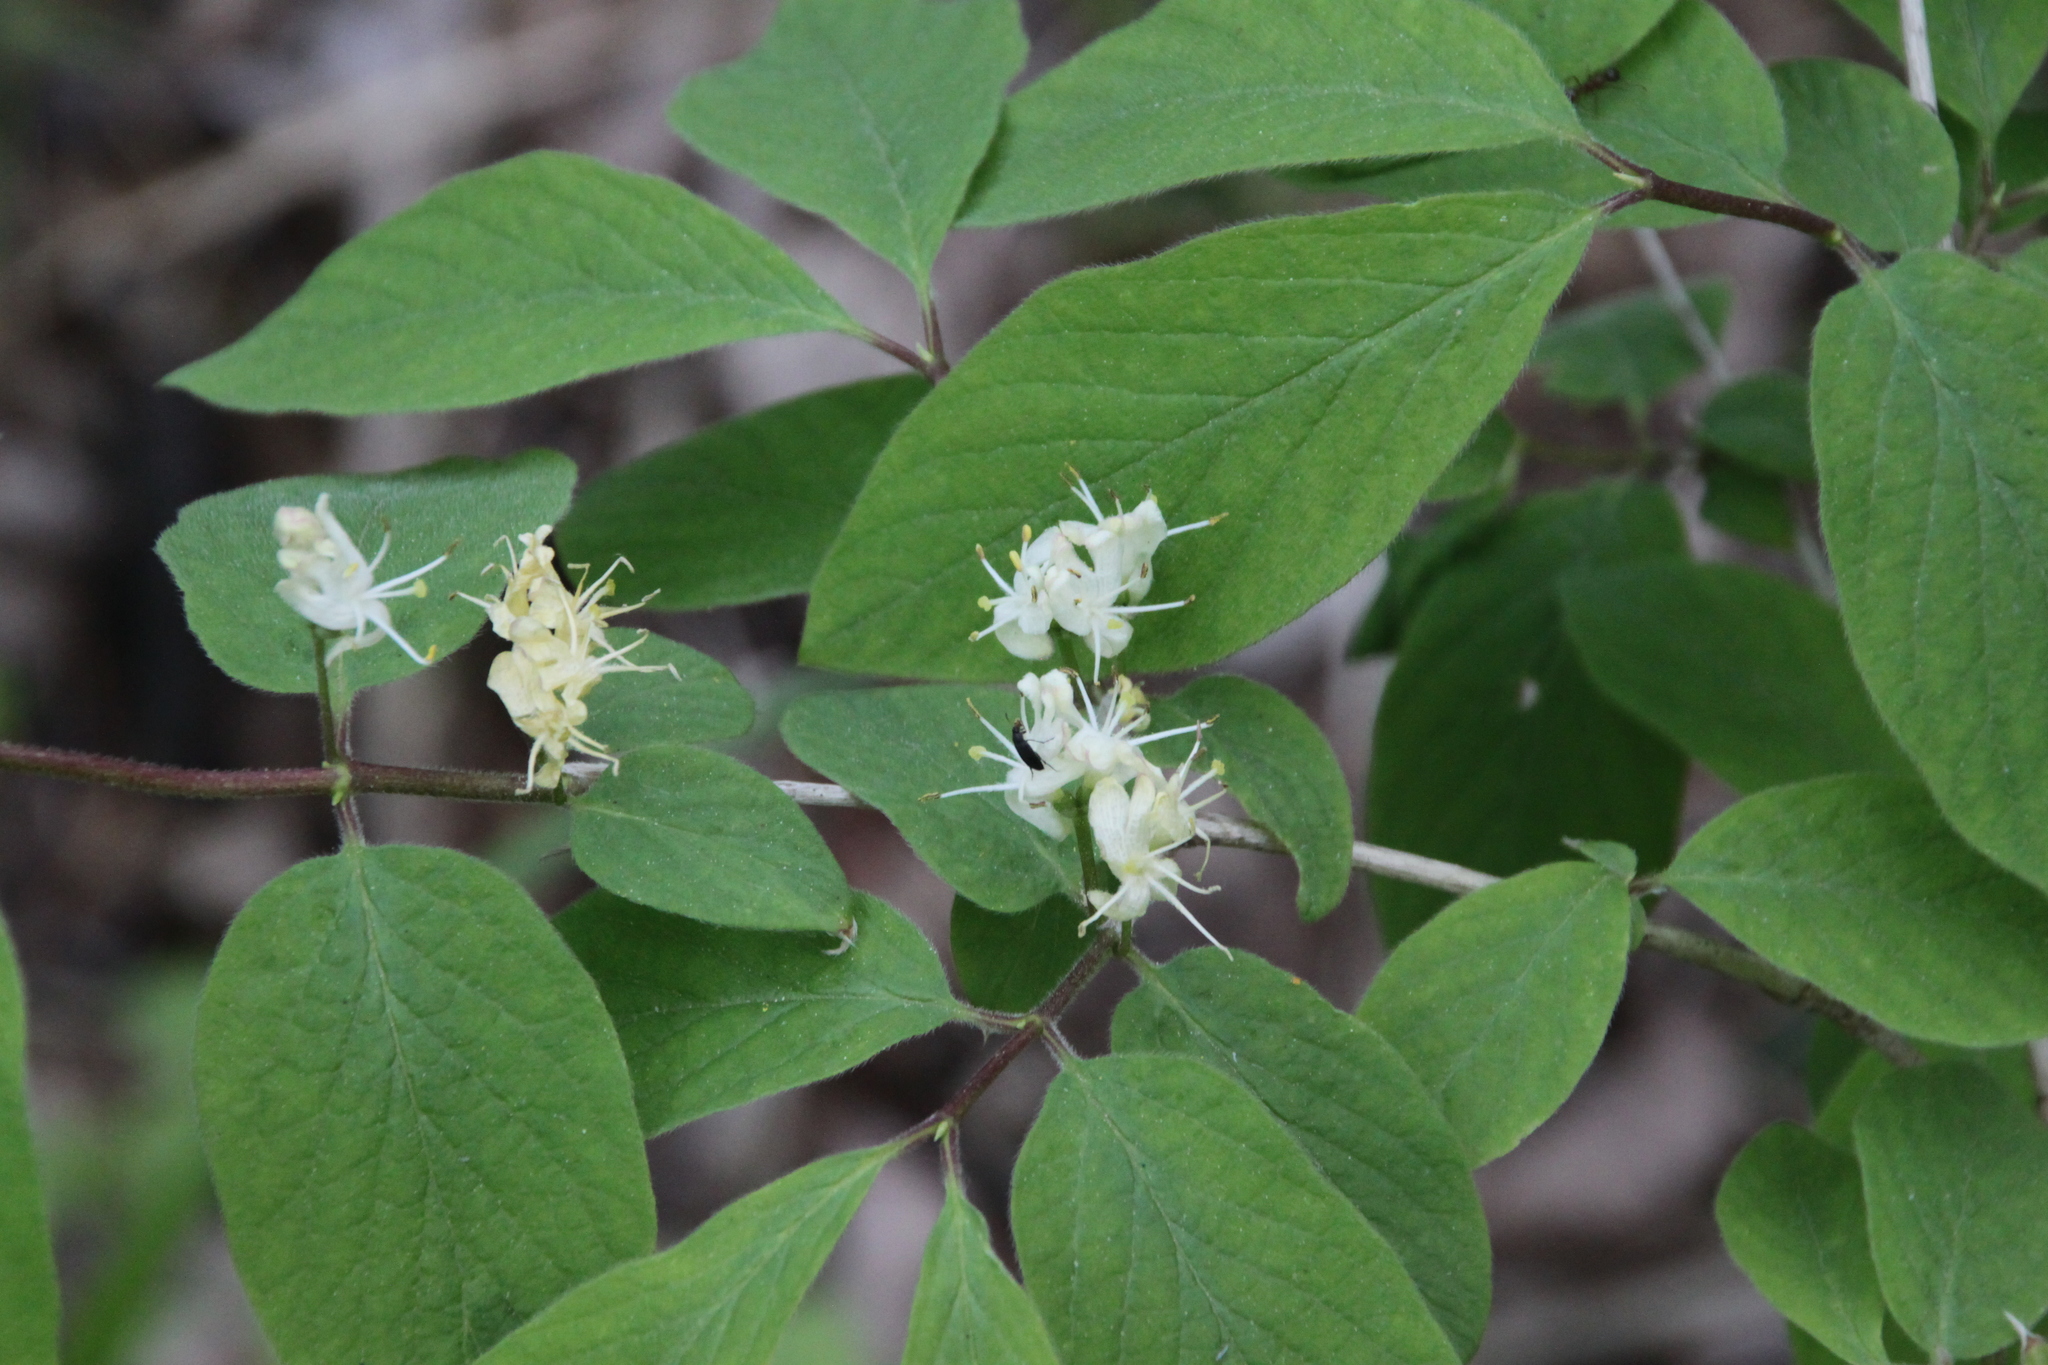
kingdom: Plantae
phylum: Tracheophyta
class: Magnoliopsida
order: Dipsacales
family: Caprifoliaceae
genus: Lonicera
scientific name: Lonicera xylosteum
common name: Fly honeysuckle
